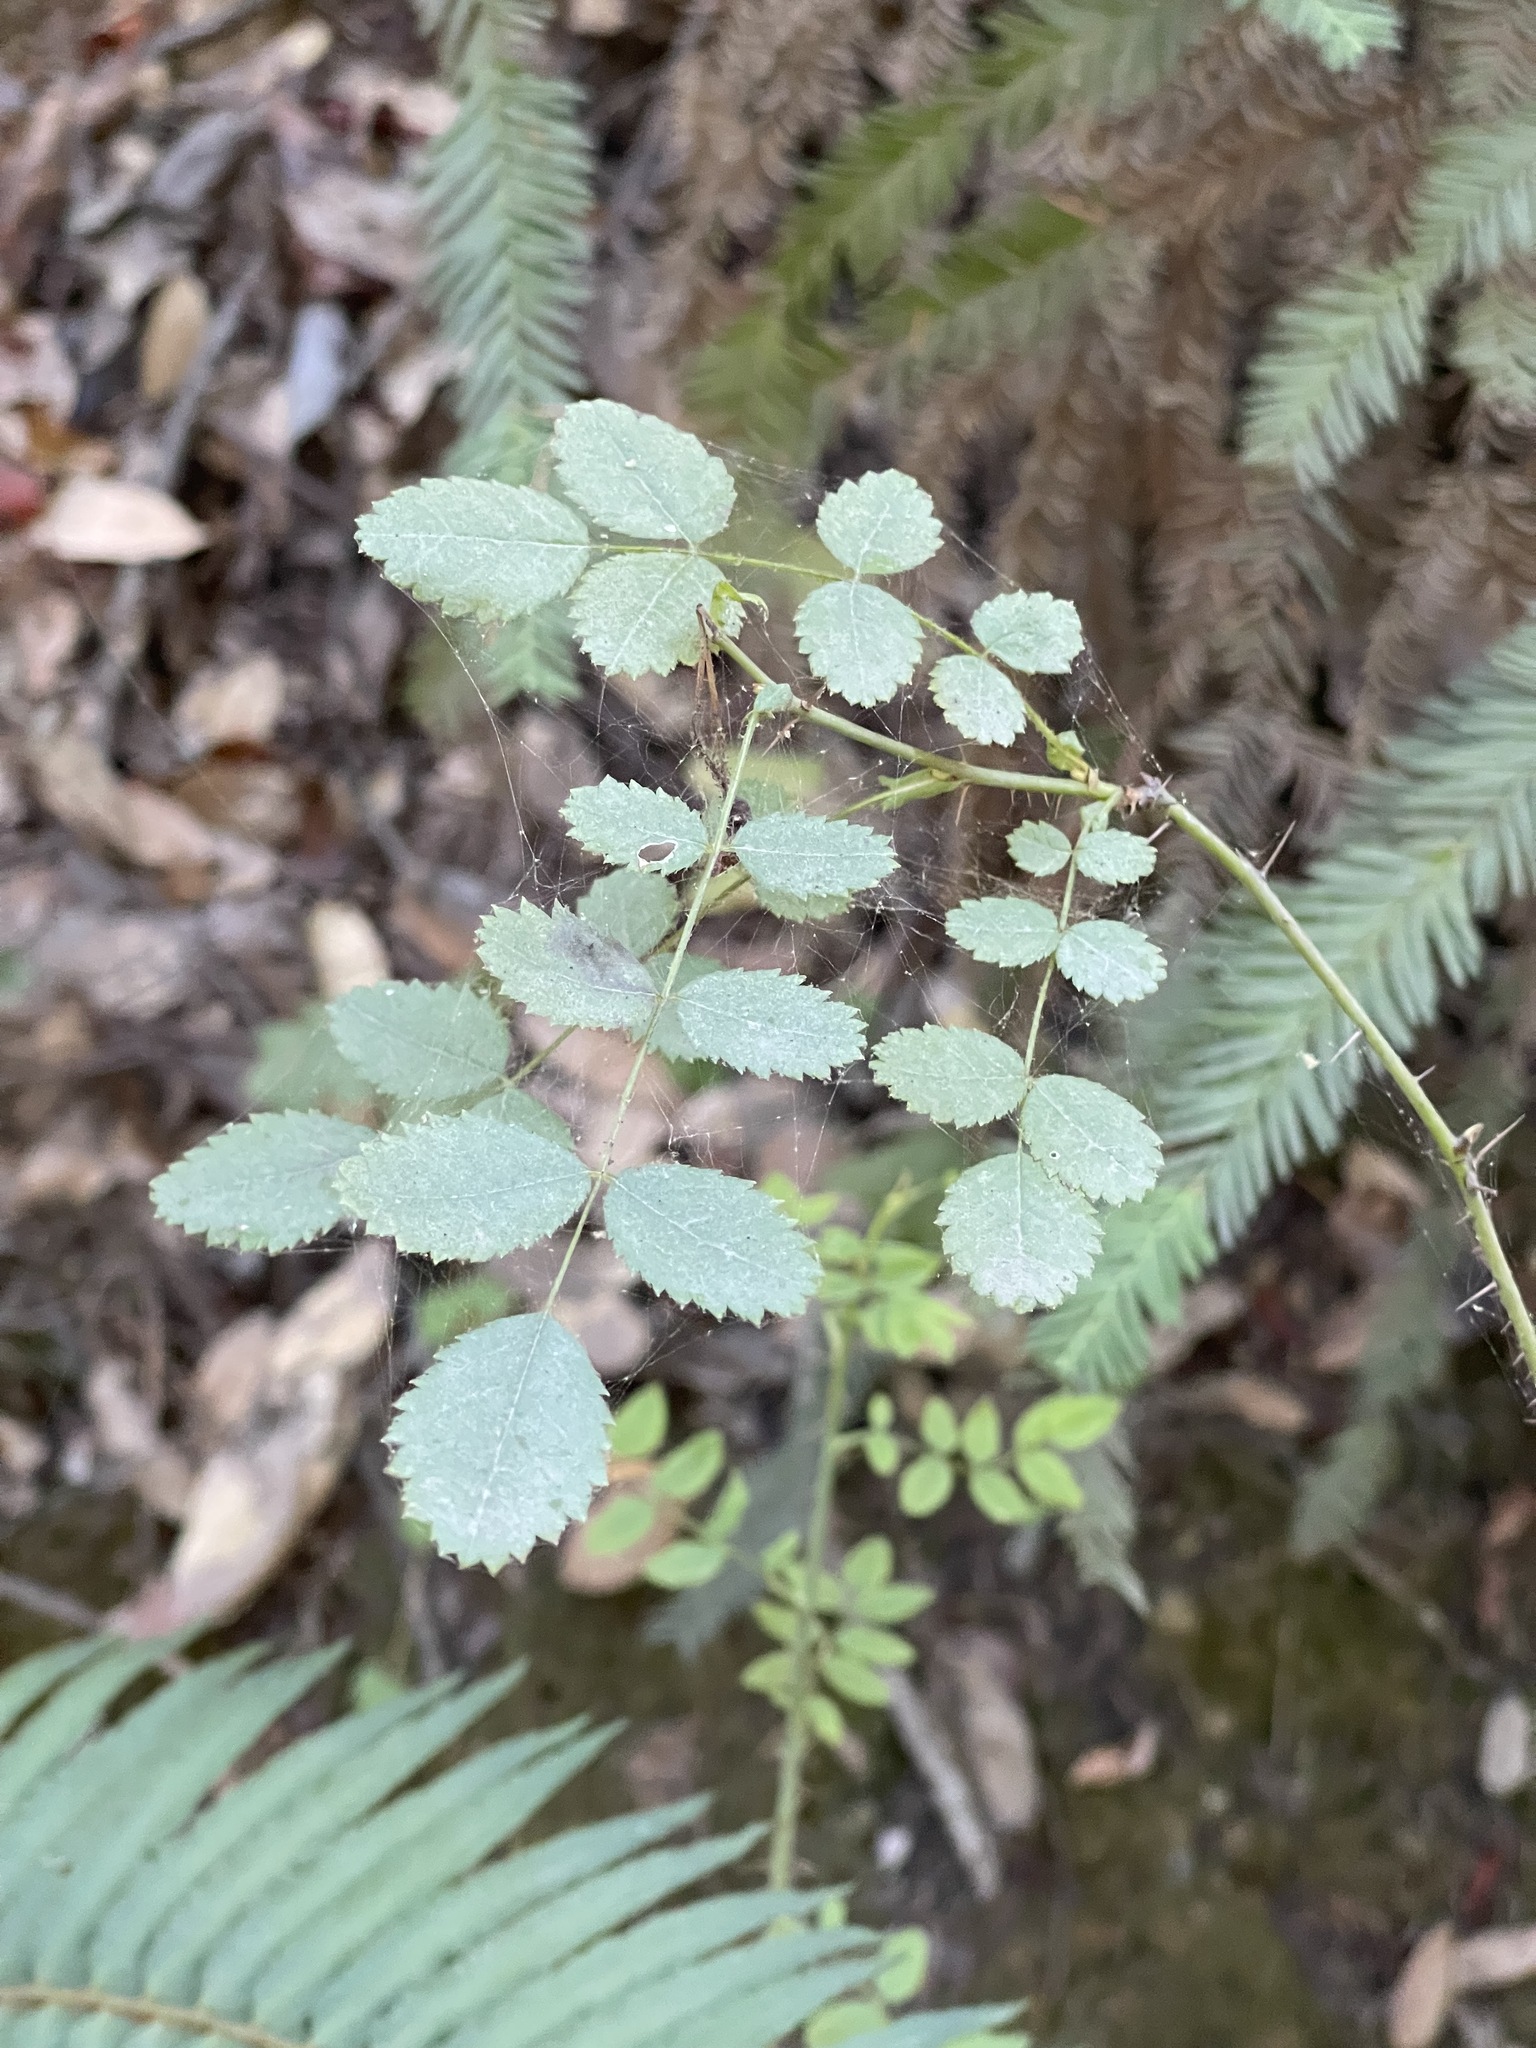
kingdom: Plantae
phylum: Tracheophyta
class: Magnoliopsida
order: Rosales
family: Rosaceae
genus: Rosa
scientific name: Rosa gymnocarpa
